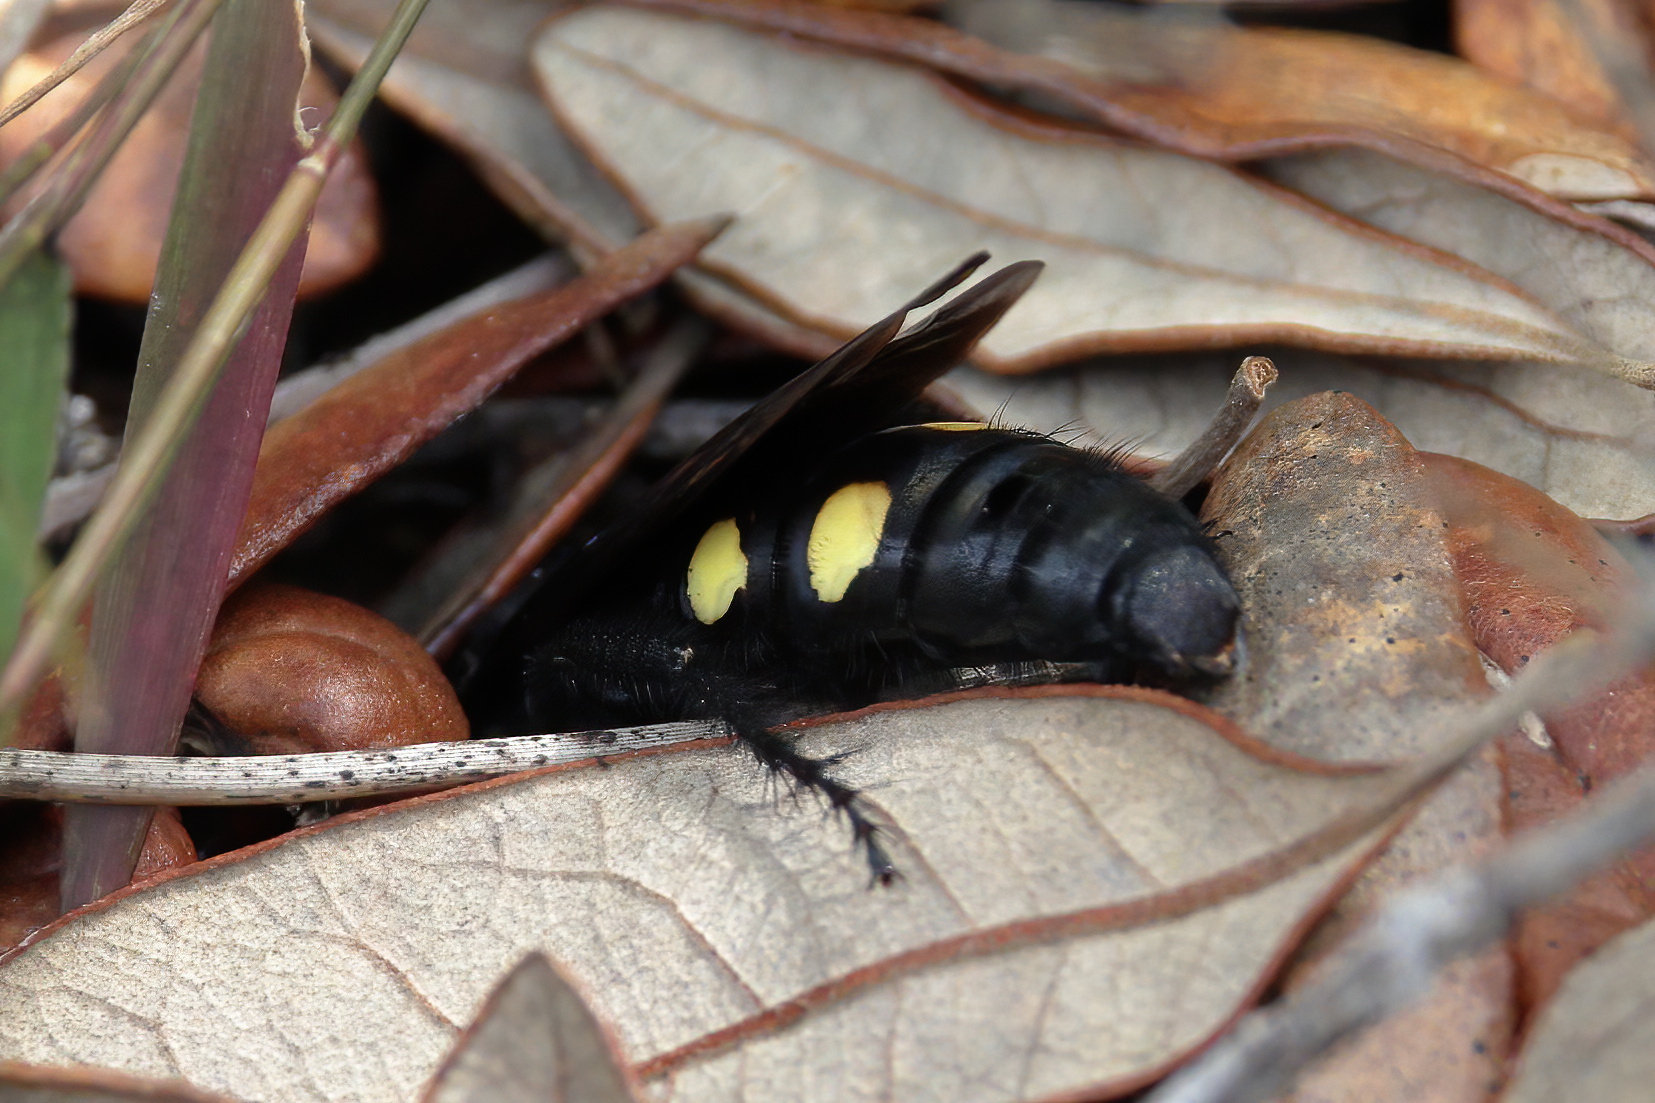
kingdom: Animalia
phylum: Arthropoda
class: Insecta
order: Hymenoptera
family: Scoliidae
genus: Pygodasis
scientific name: Pygodasis
